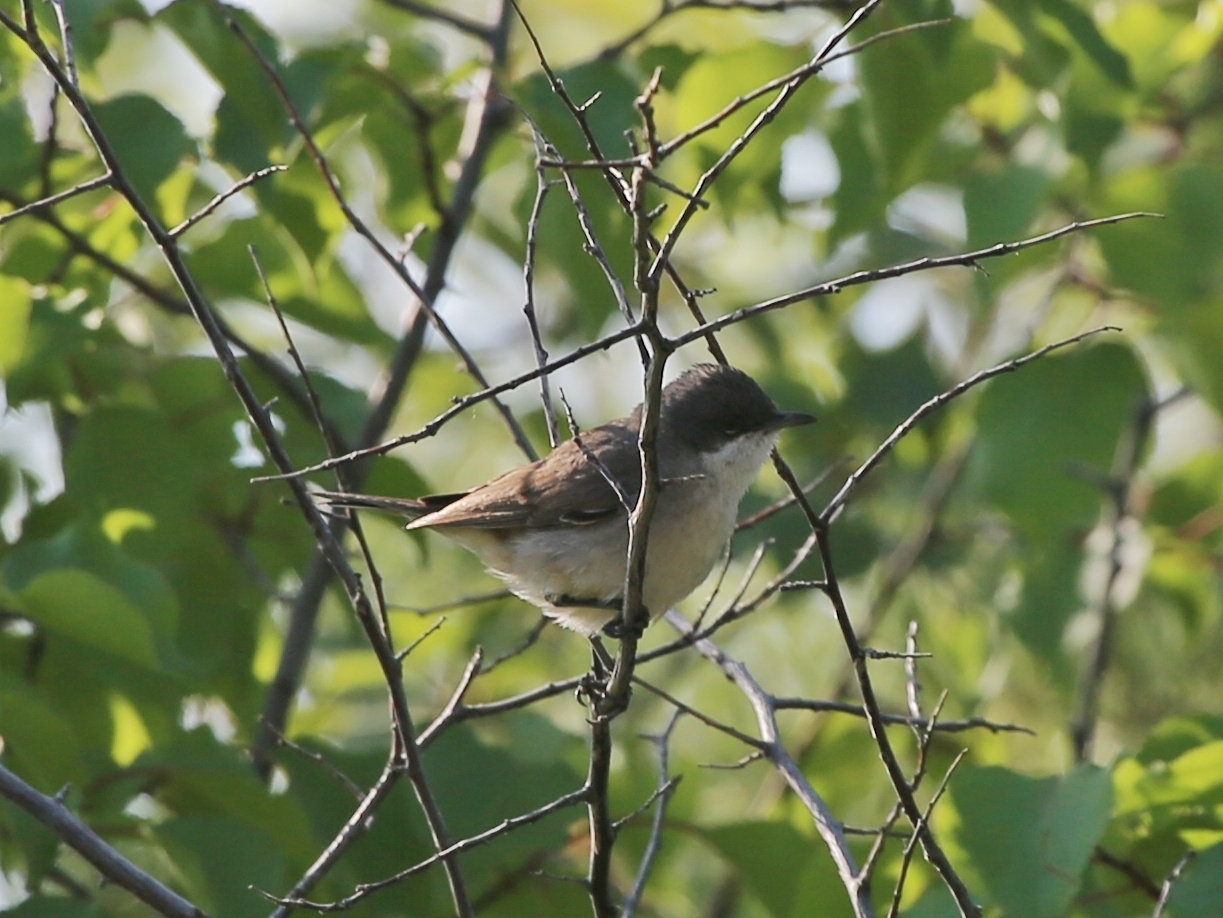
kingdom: Animalia
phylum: Chordata
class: Aves
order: Passeriformes
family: Sylviidae
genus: Sylvia
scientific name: Sylvia curruca
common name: Lesser whitethroat
